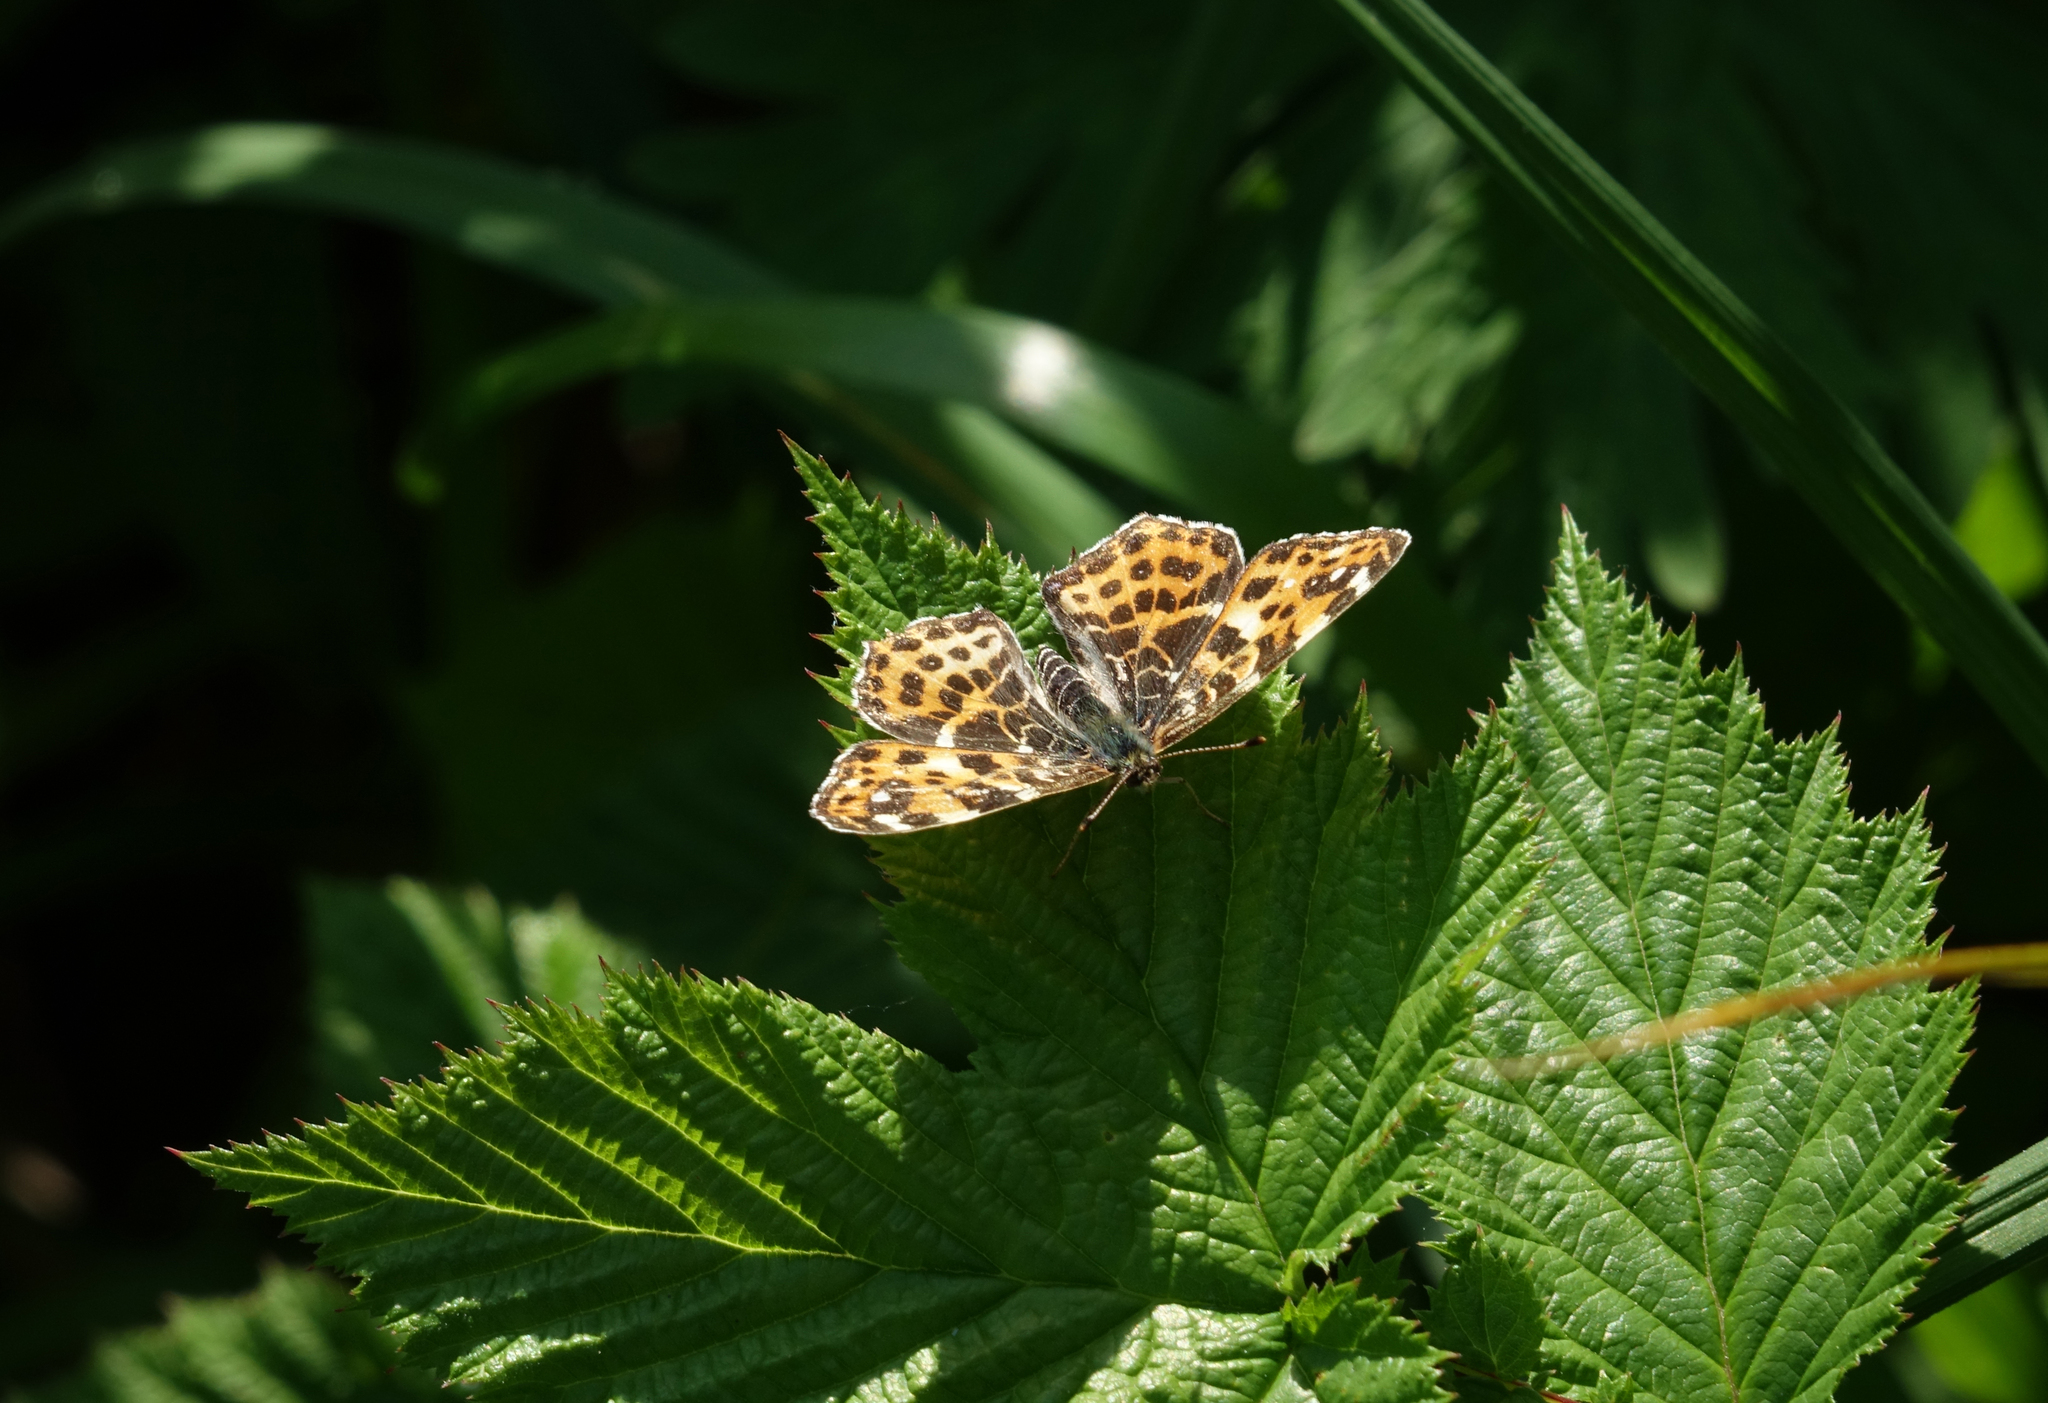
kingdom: Animalia
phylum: Arthropoda
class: Insecta
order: Lepidoptera
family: Nymphalidae
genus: Araschnia
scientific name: Araschnia levana
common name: Map butterfly
